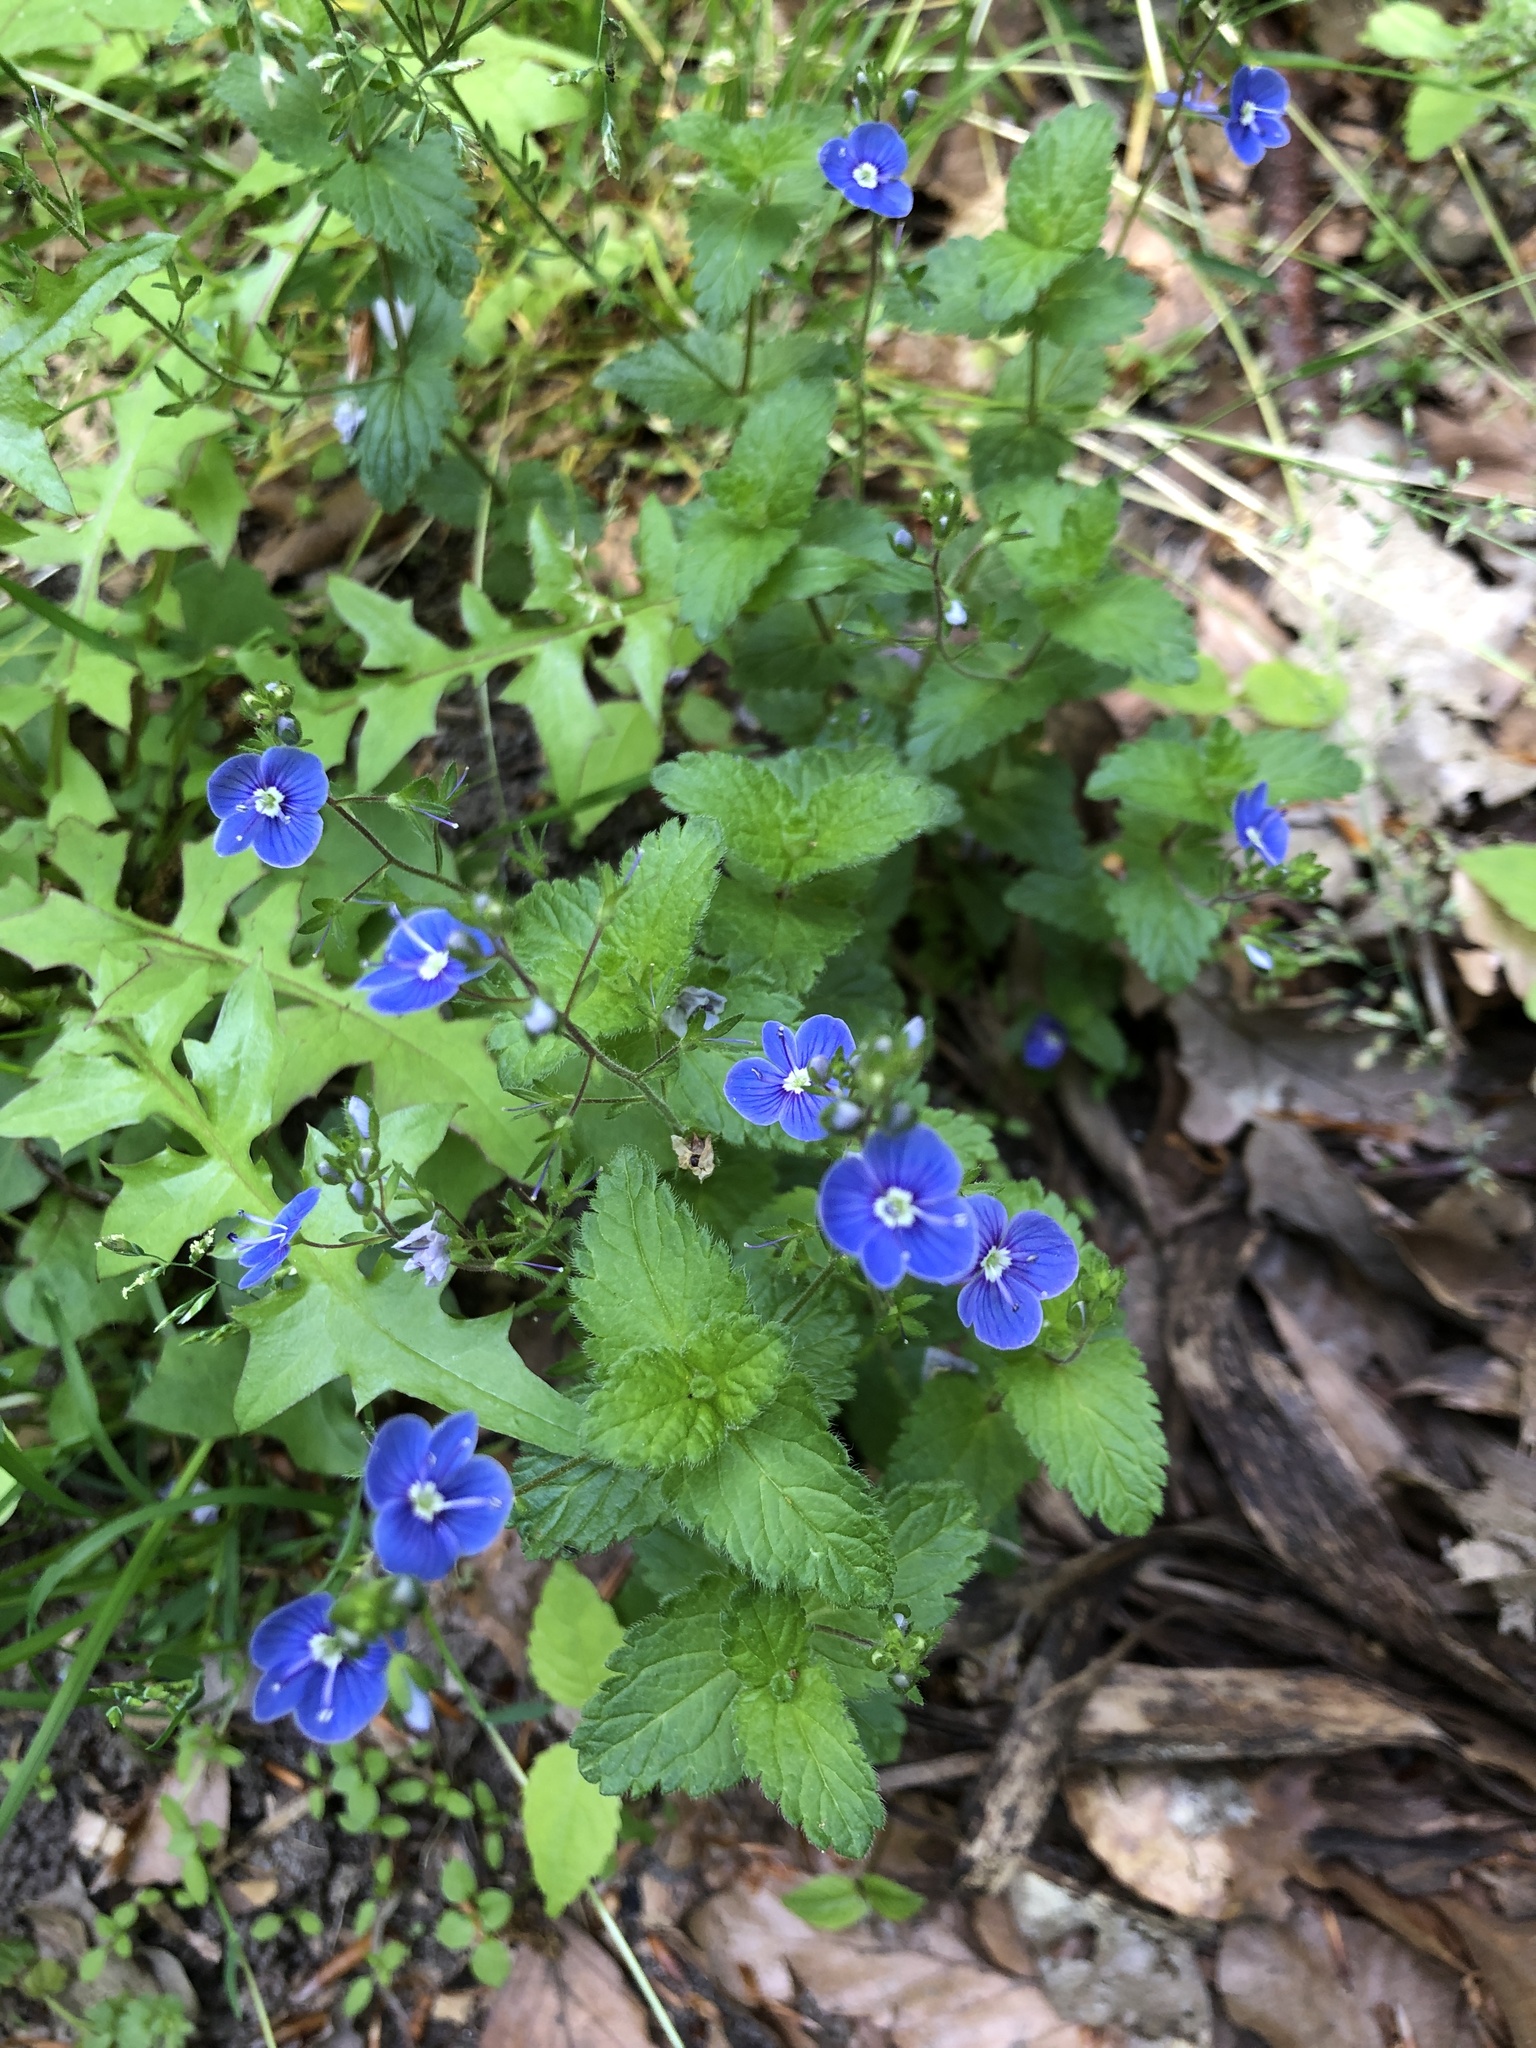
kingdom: Plantae
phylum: Tracheophyta
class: Magnoliopsida
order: Lamiales
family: Plantaginaceae
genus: Veronica
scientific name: Veronica chamaedrys
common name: Germander speedwell
